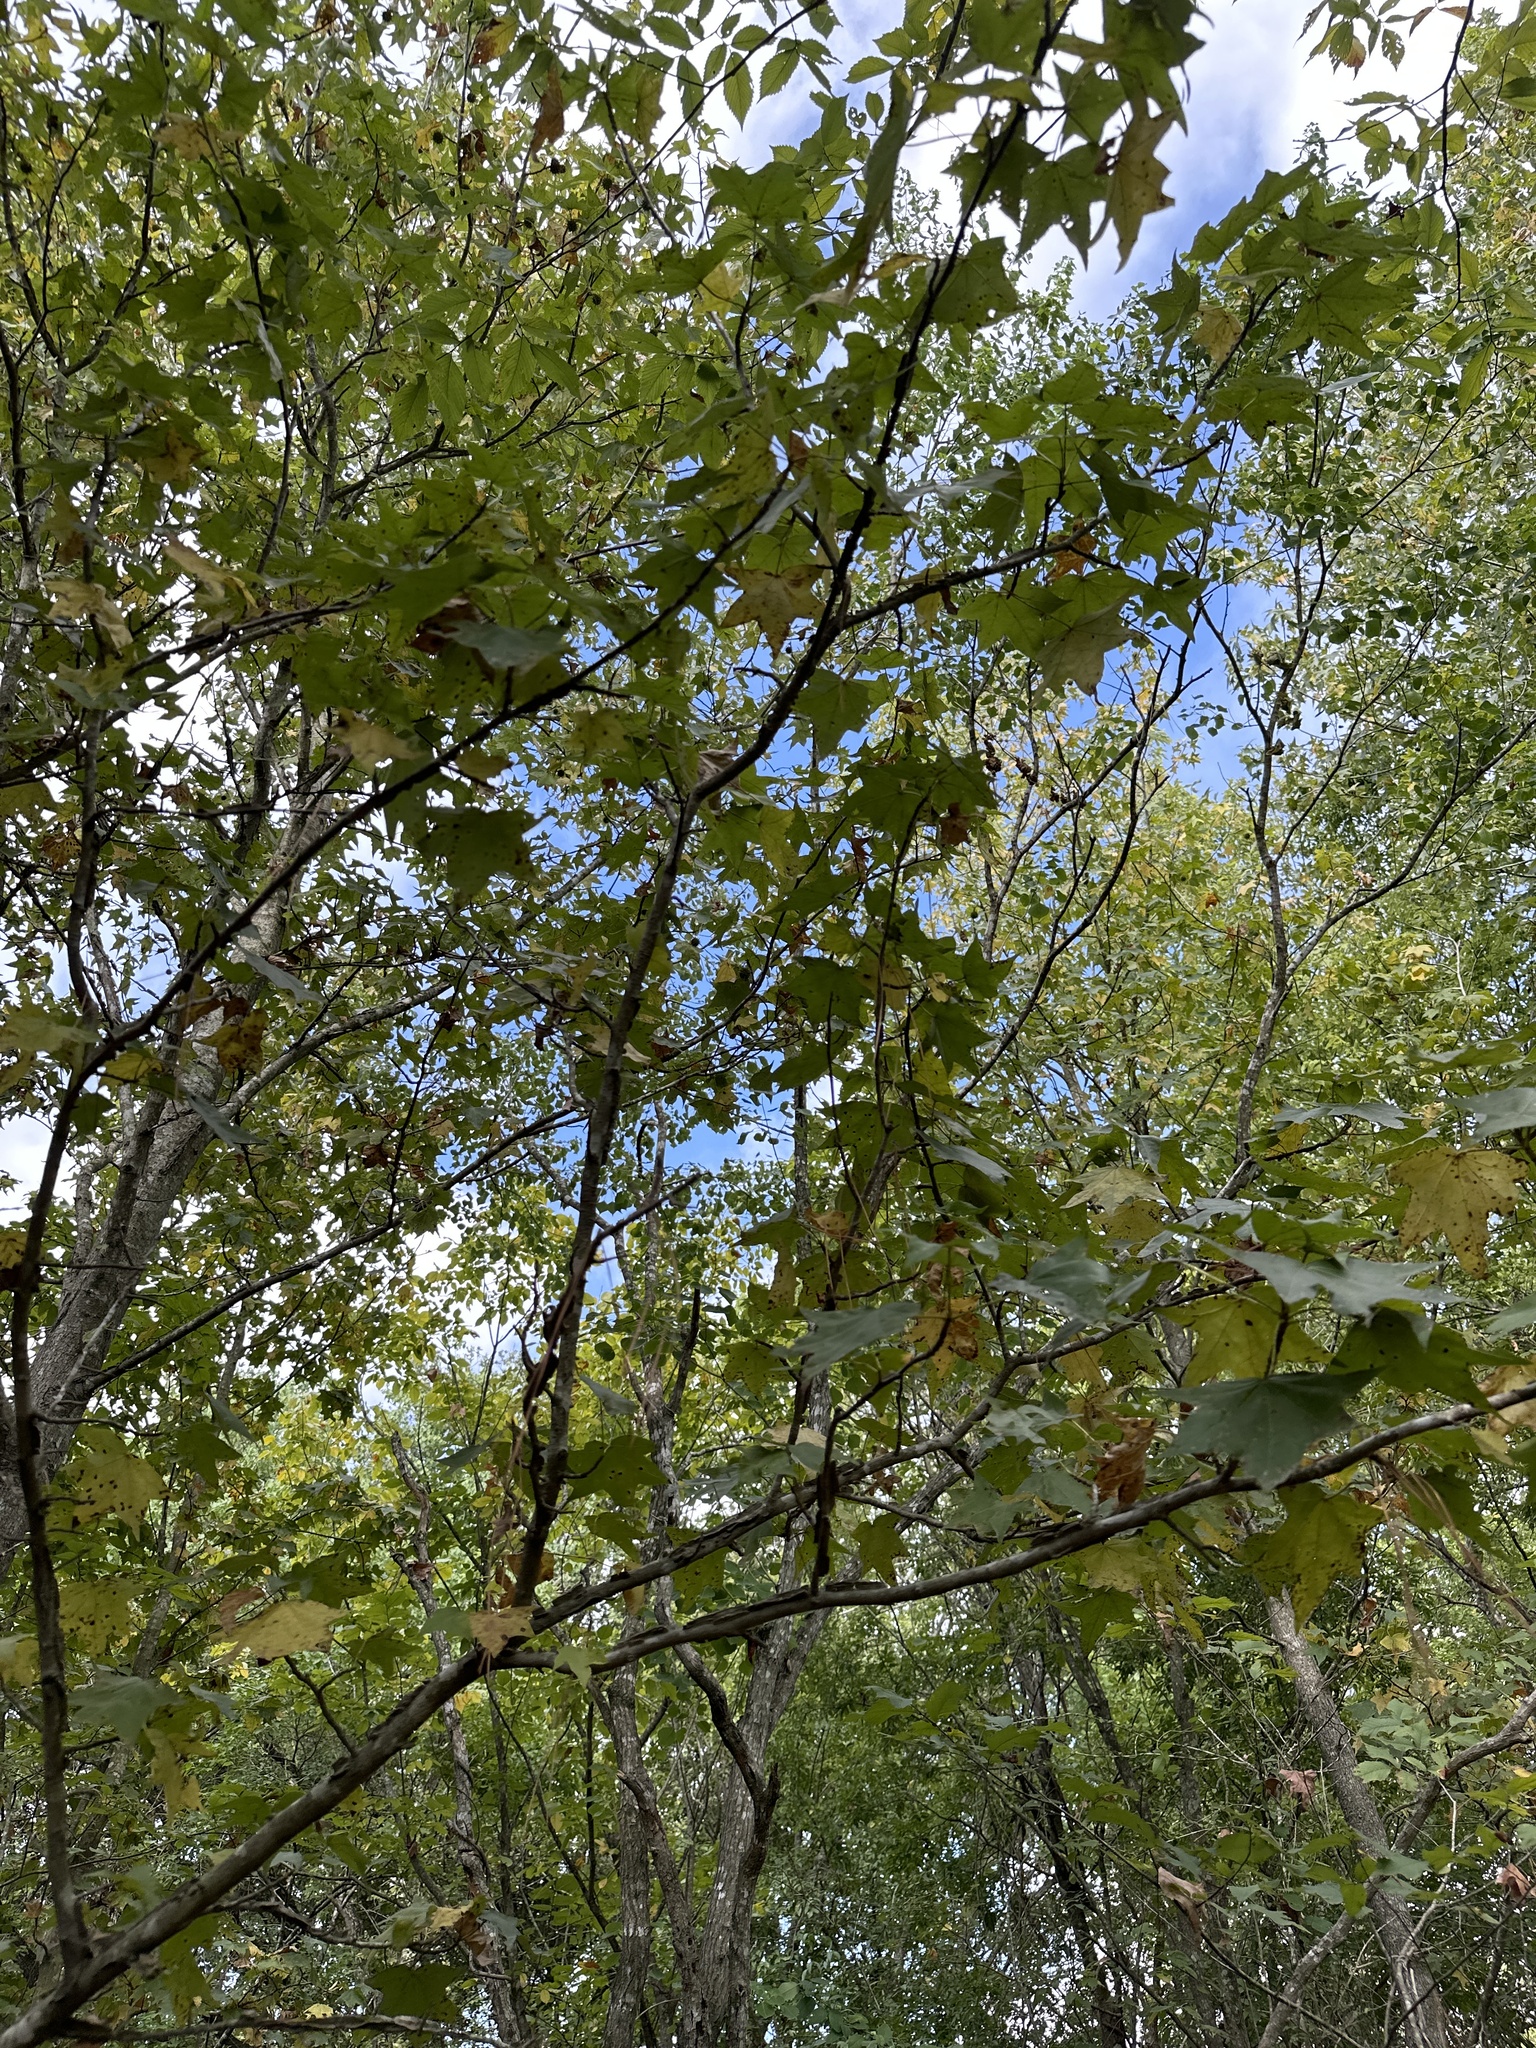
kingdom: Plantae
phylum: Tracheophyta
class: Magnoliopsida
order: Saxifragales
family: Altingiaceae
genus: Liquidambar
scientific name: Liquidambar styraciflua
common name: Sweet gum
